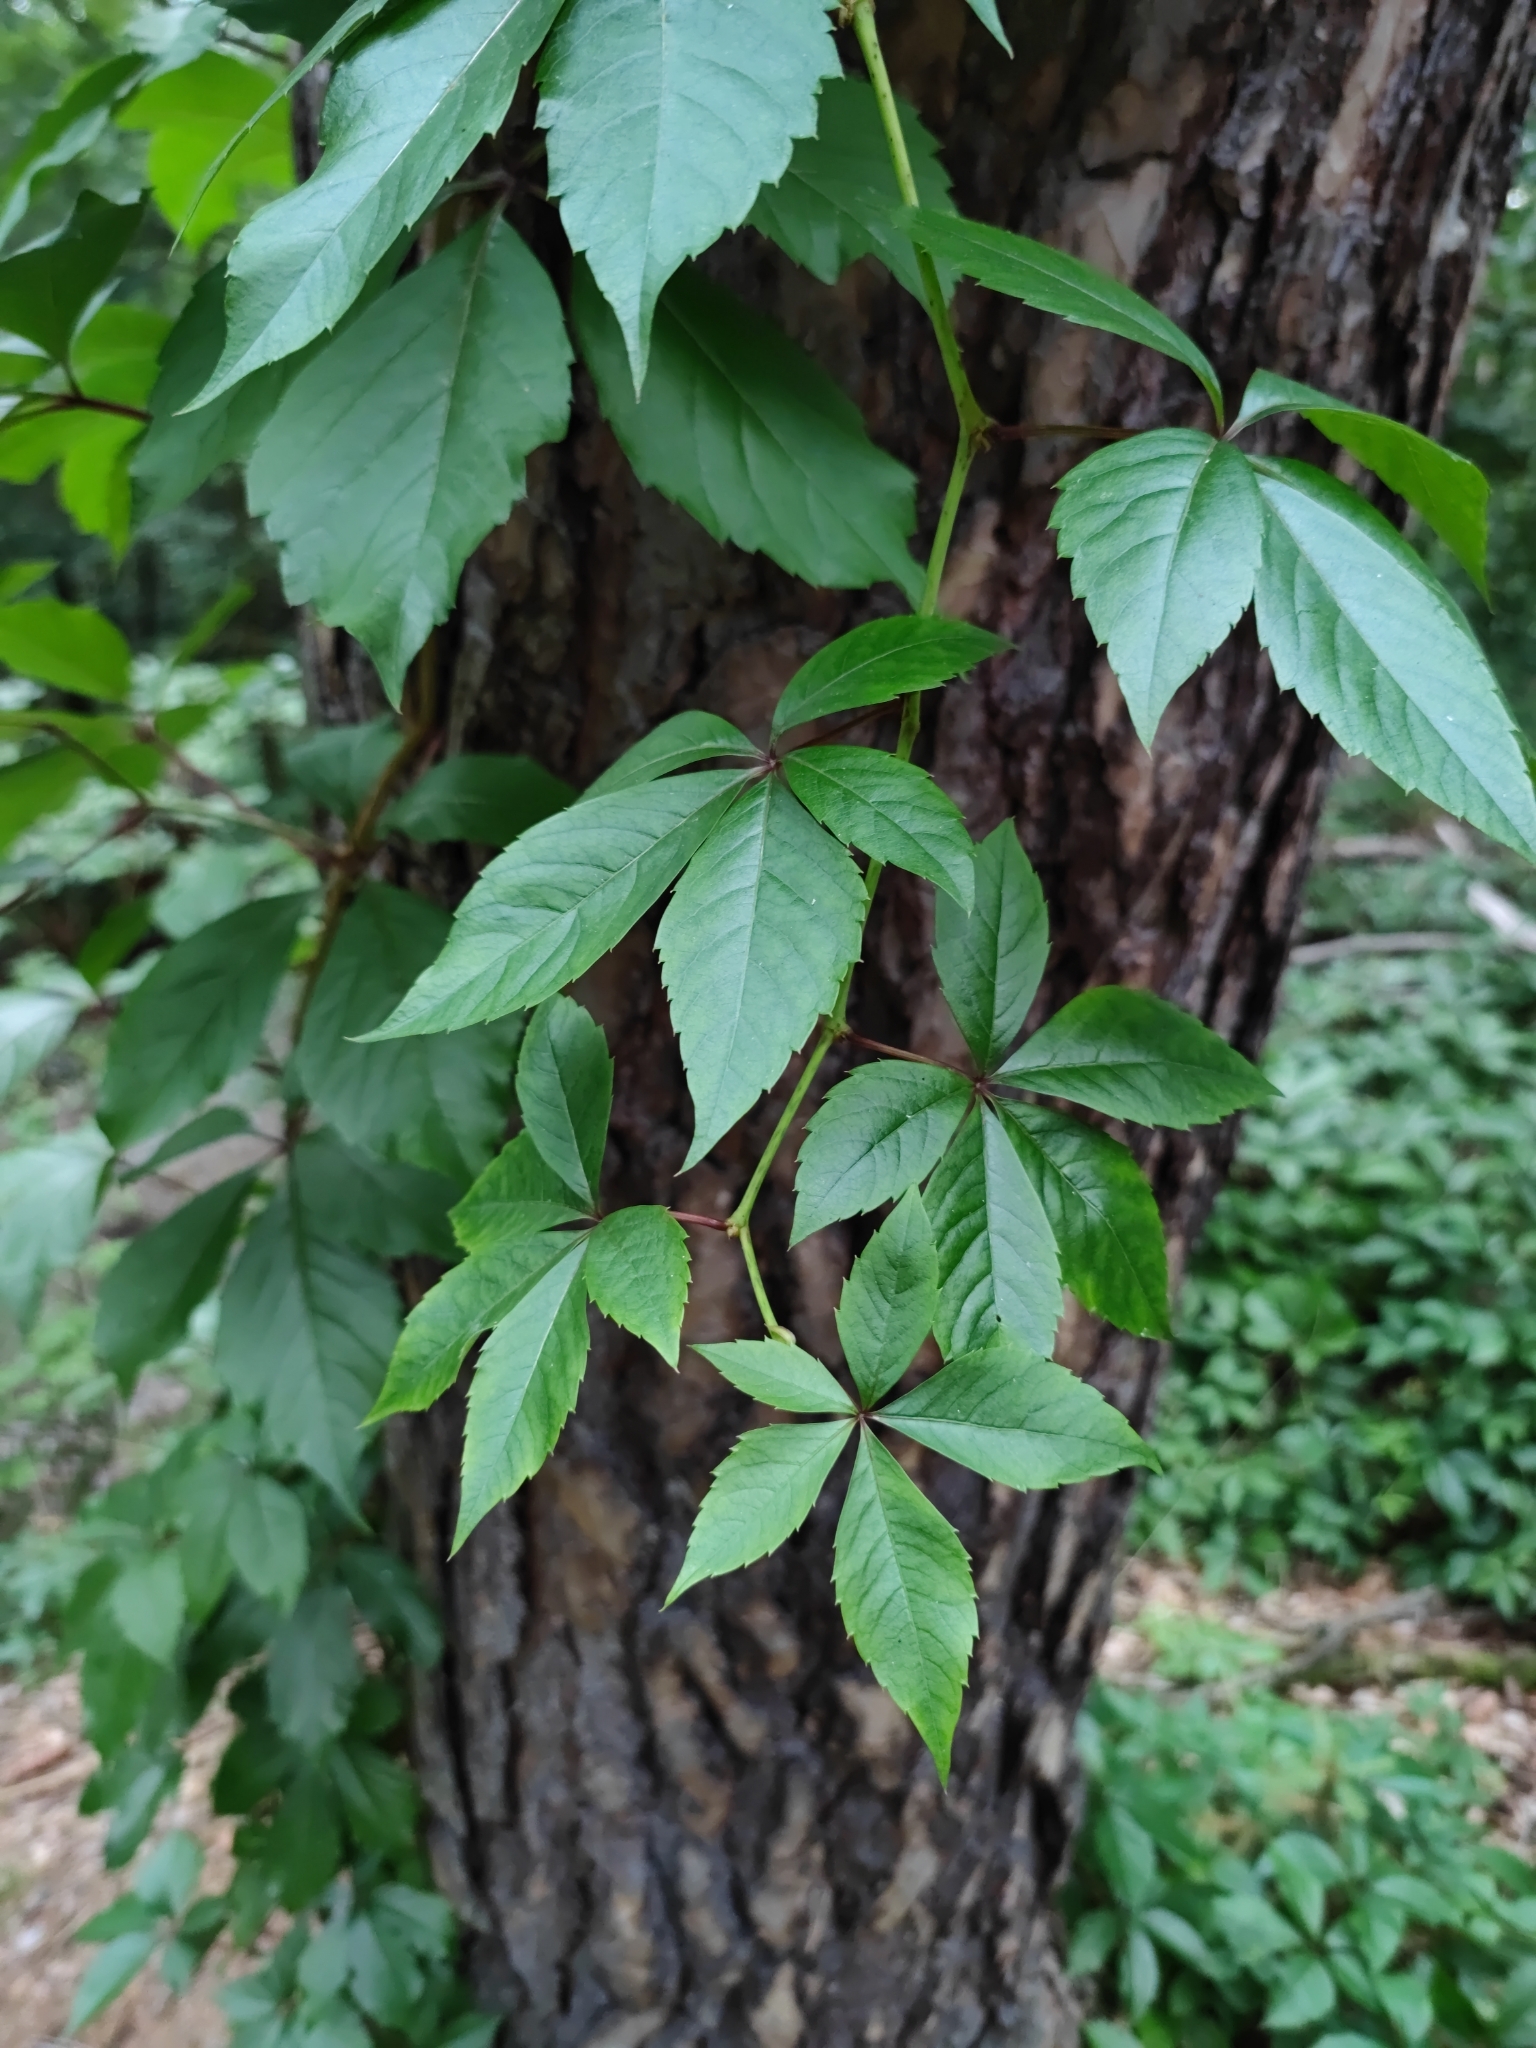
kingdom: Plantae
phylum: Tracheophyta
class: Magnoliopsida
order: Vitales
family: Vitaceae
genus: Parthenocissus
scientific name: Parthenocissus quinquefolia
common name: Virginia-creeper
